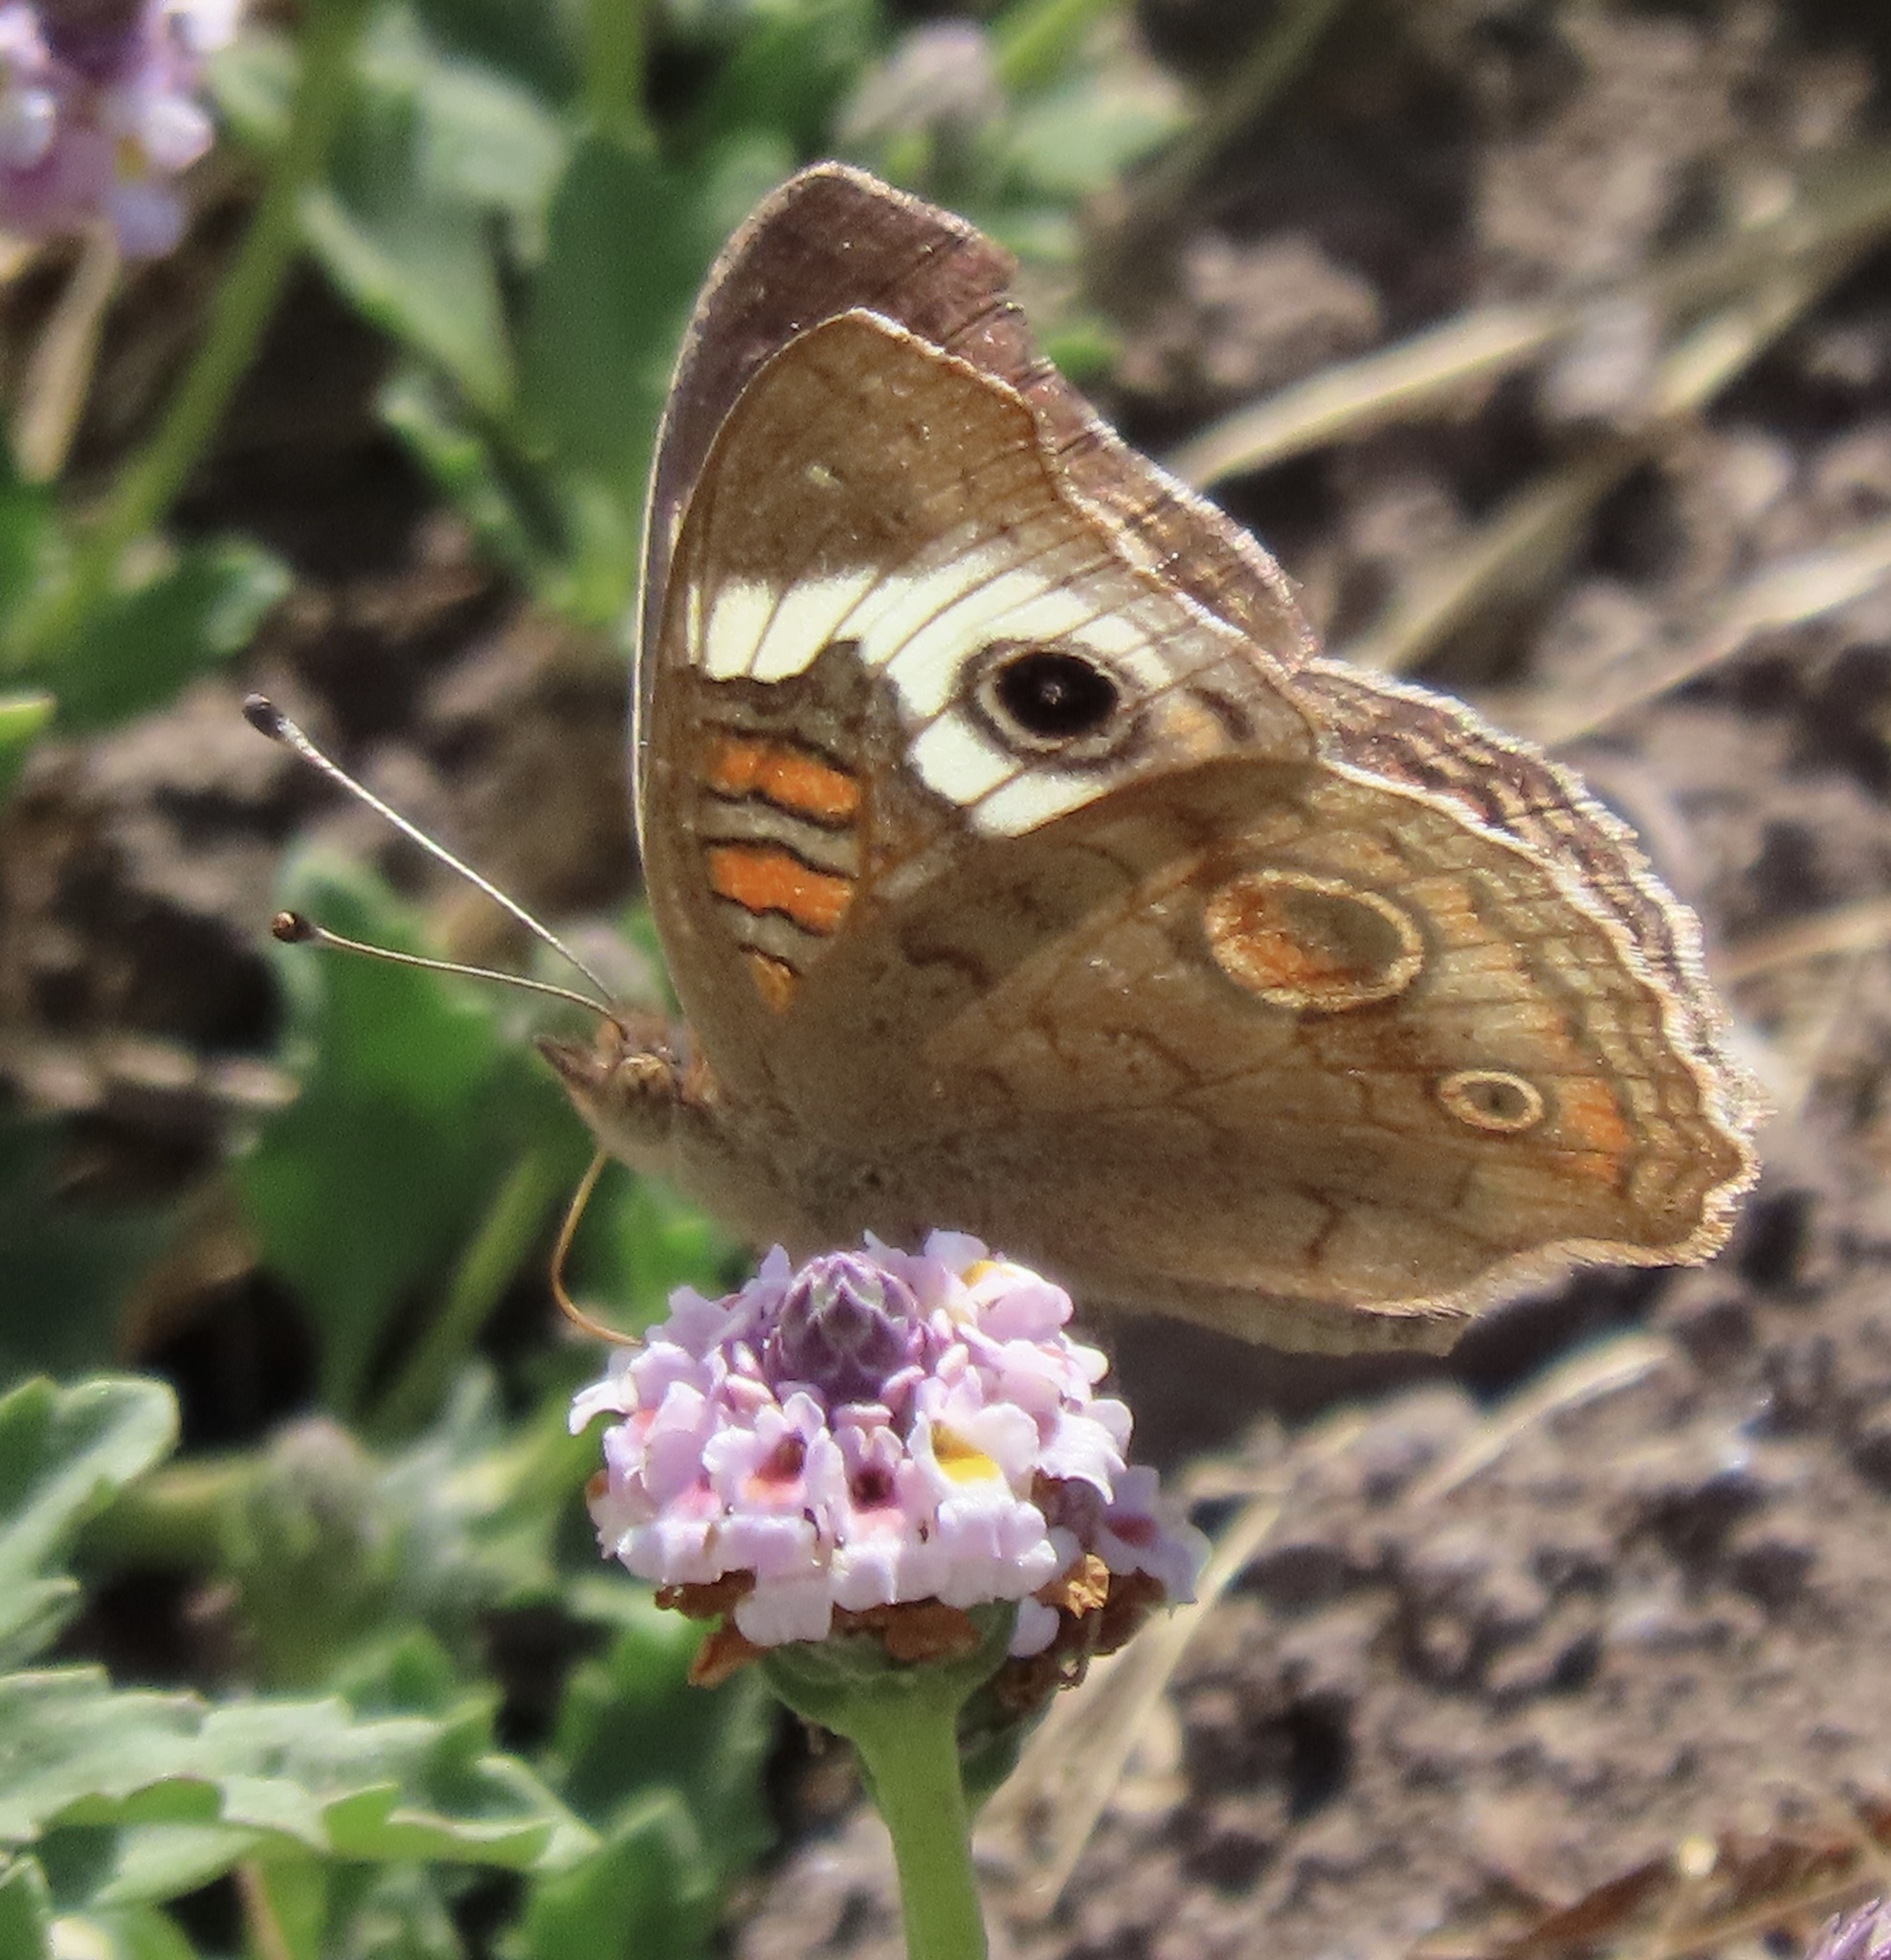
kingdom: Animalia
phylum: Arthropoda
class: Insecta
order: Lepidoptera
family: Nymphalidae
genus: Junonia
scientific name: Junonia grisea
